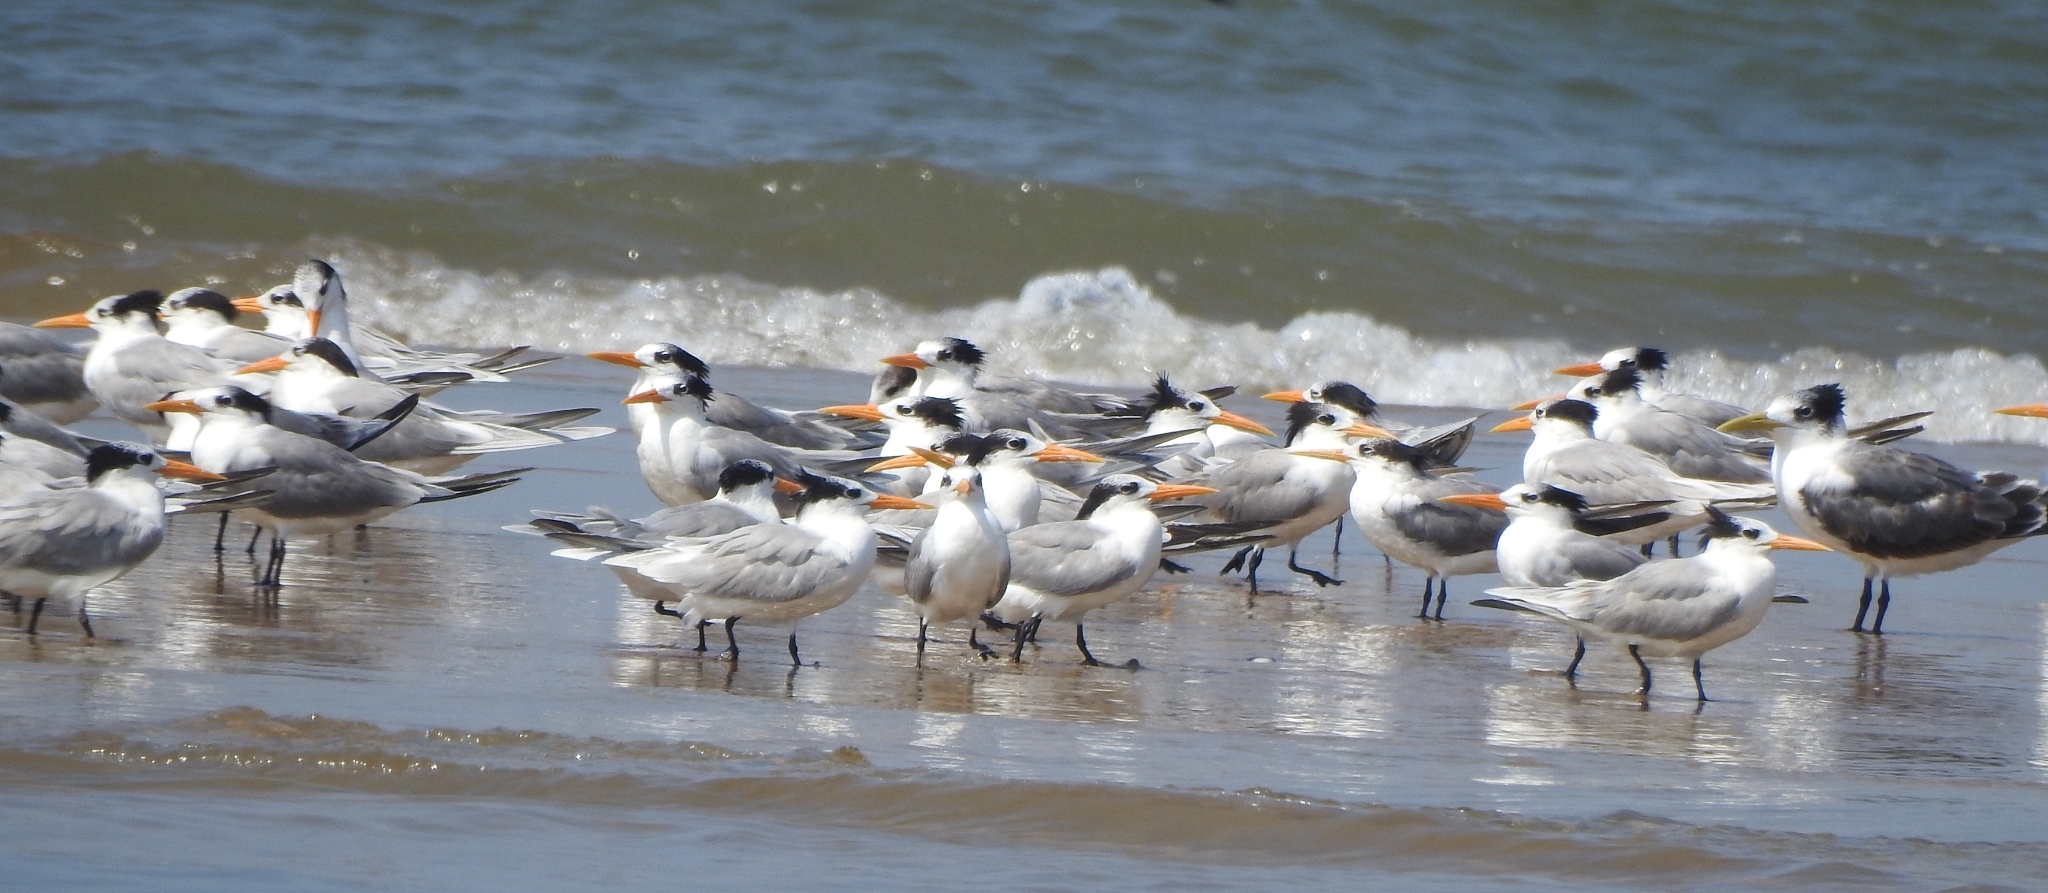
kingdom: Animalia
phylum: Chordata
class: Aves
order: Charadriiformes
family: Laridae
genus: Thalasseus
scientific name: Thalasseus bengalensis
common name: Lesser crested tern
